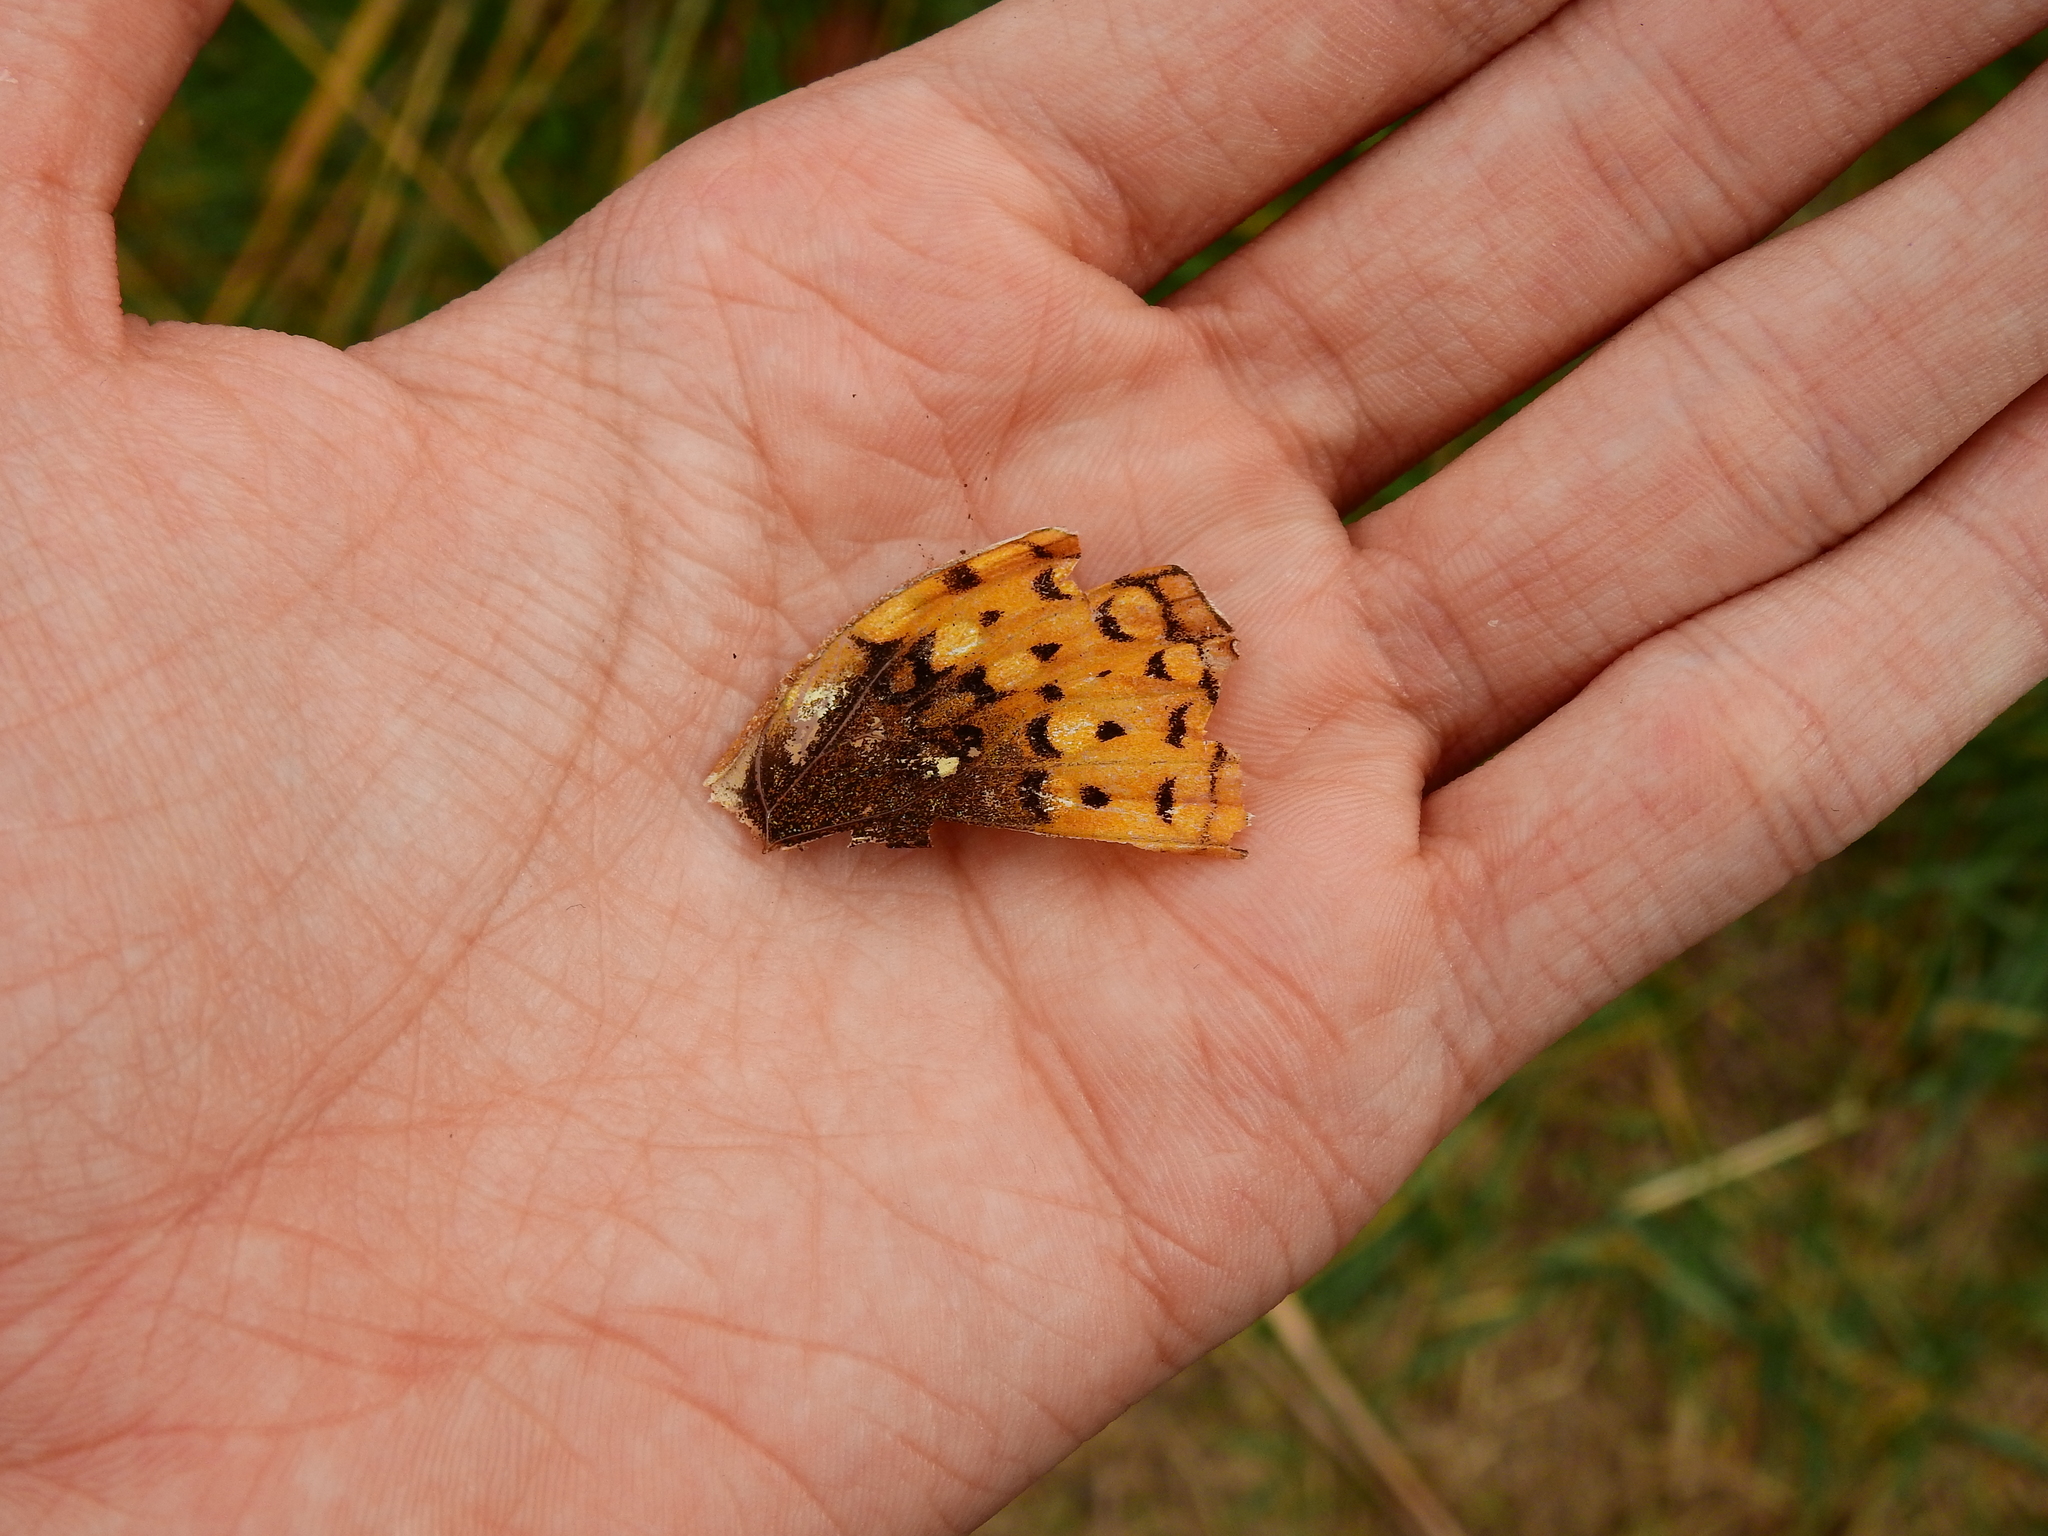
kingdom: Animalia
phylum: Arthropoda
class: Insecta
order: Lepidoptera
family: Nymphalidae
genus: Speyeria
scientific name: Speyeria cybele
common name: Great spangled fritillary
